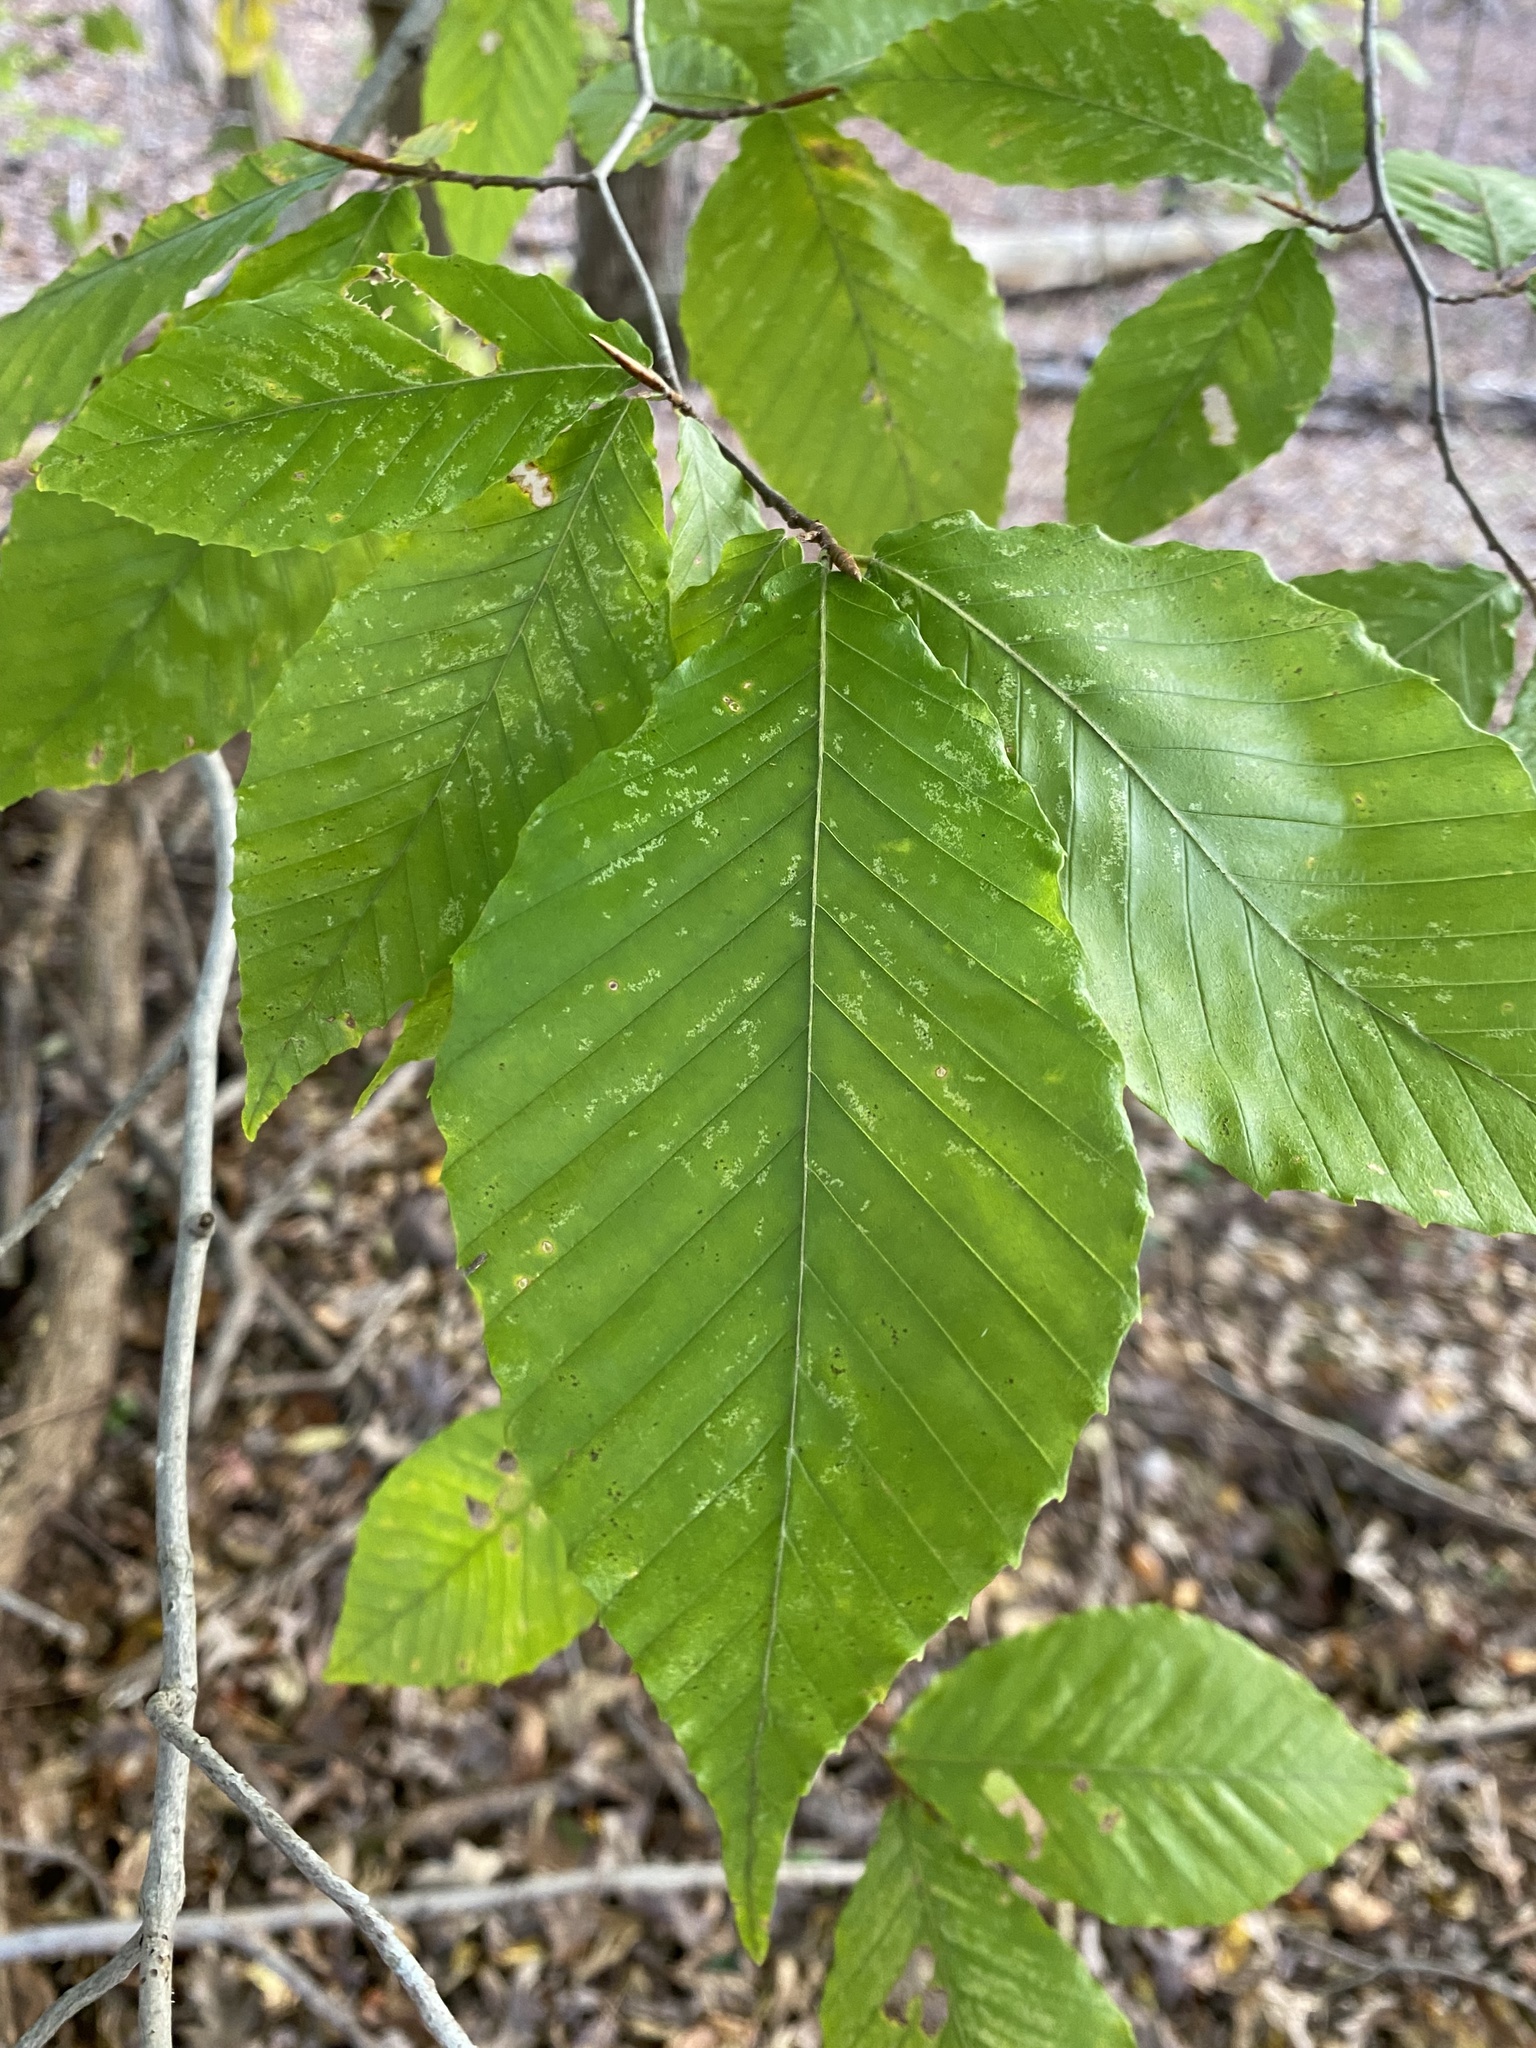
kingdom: Plantae
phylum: Tracheophyta
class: Magnoliopsida
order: Fagales
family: Fagaceae
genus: Fagus
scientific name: Fagus grandifolia
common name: American beech
